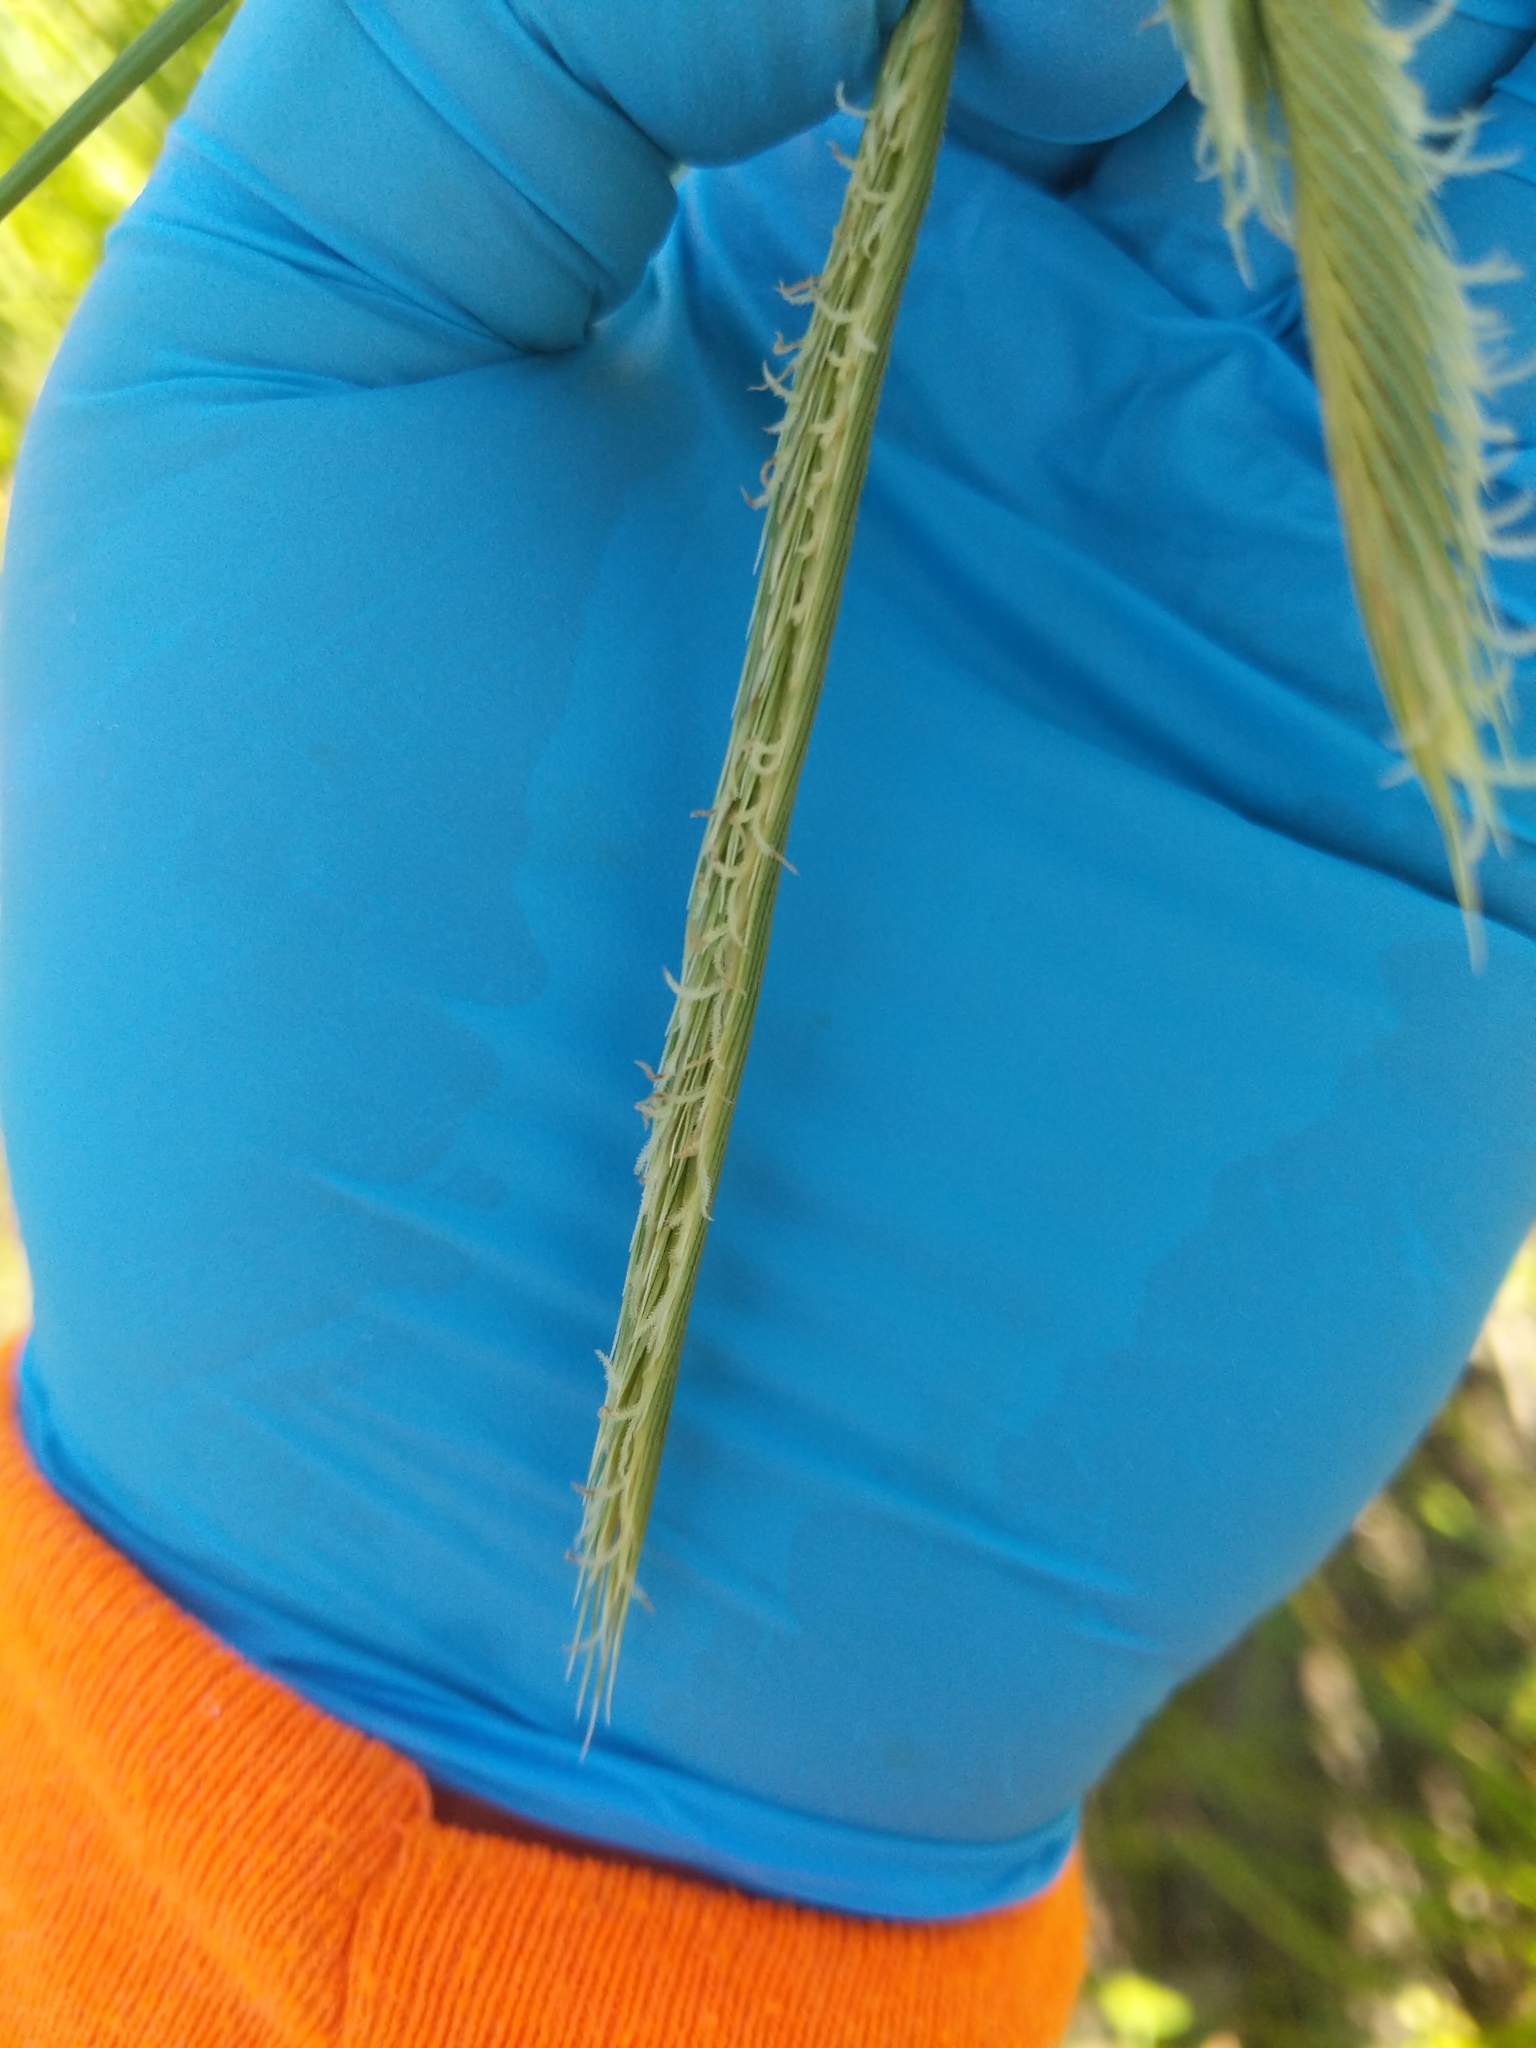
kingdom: Plantae
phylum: Tracheophyta
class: Liliopsida
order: Poales
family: Poaceae
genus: Sporobolus
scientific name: Sporobolus michauxianus
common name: Freshwater cordgrass
